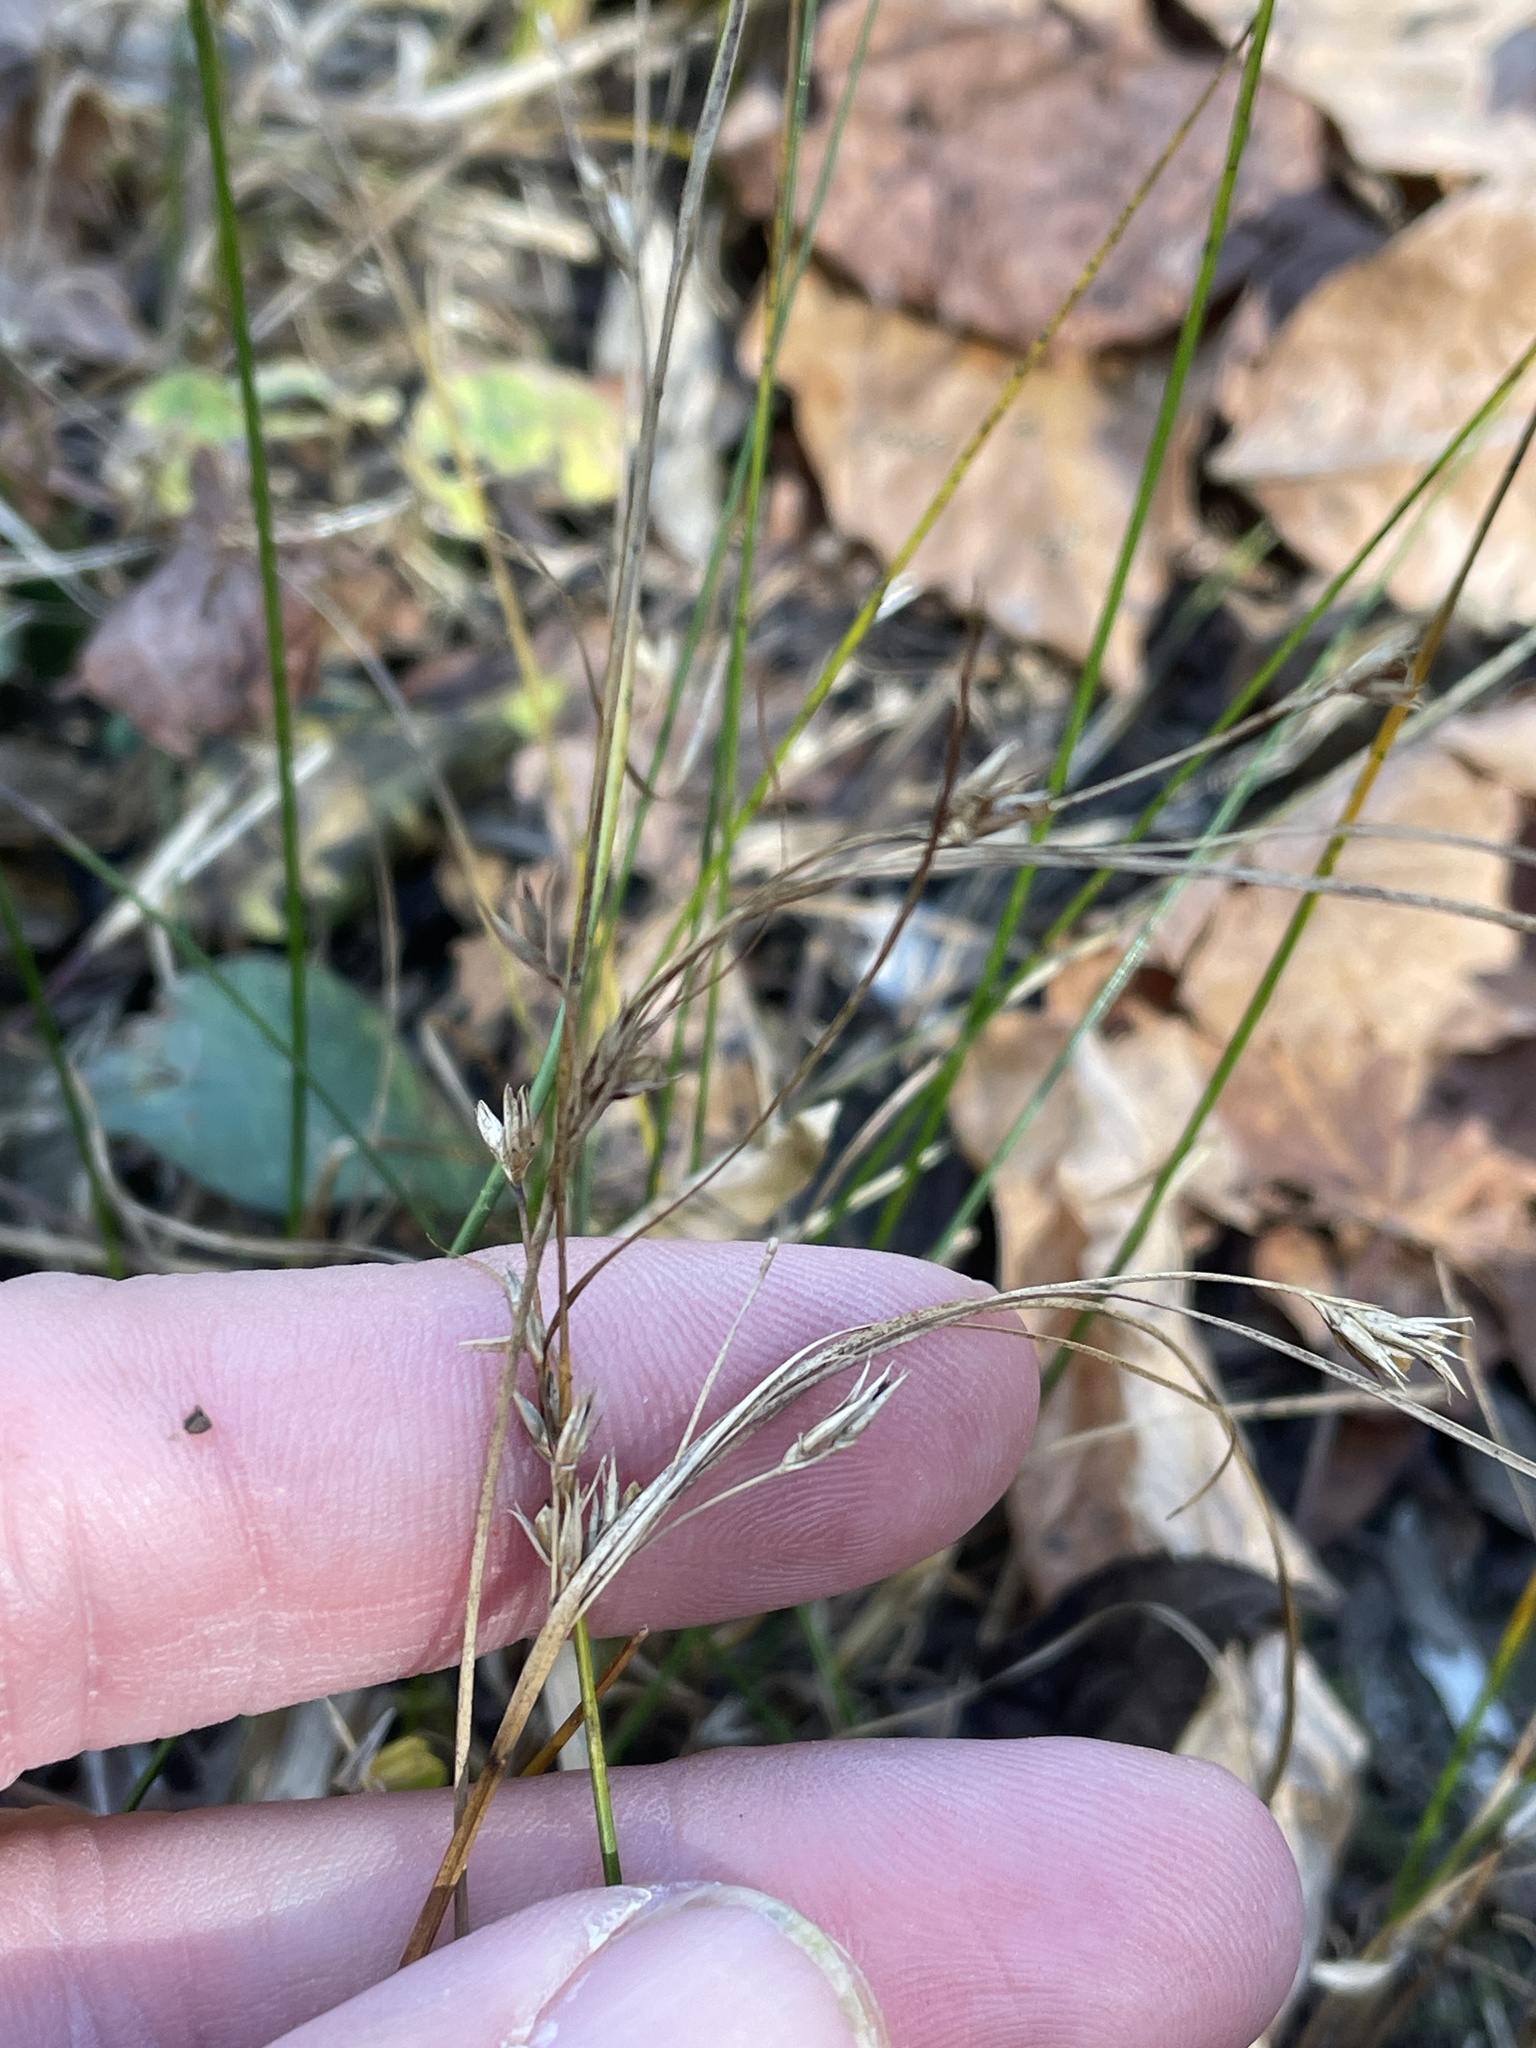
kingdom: Plantae
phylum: Tracheophyta
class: Liliopsida
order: Poales
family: Juncaceae
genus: Juncus
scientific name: Juncus tenuis
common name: Slender rush
